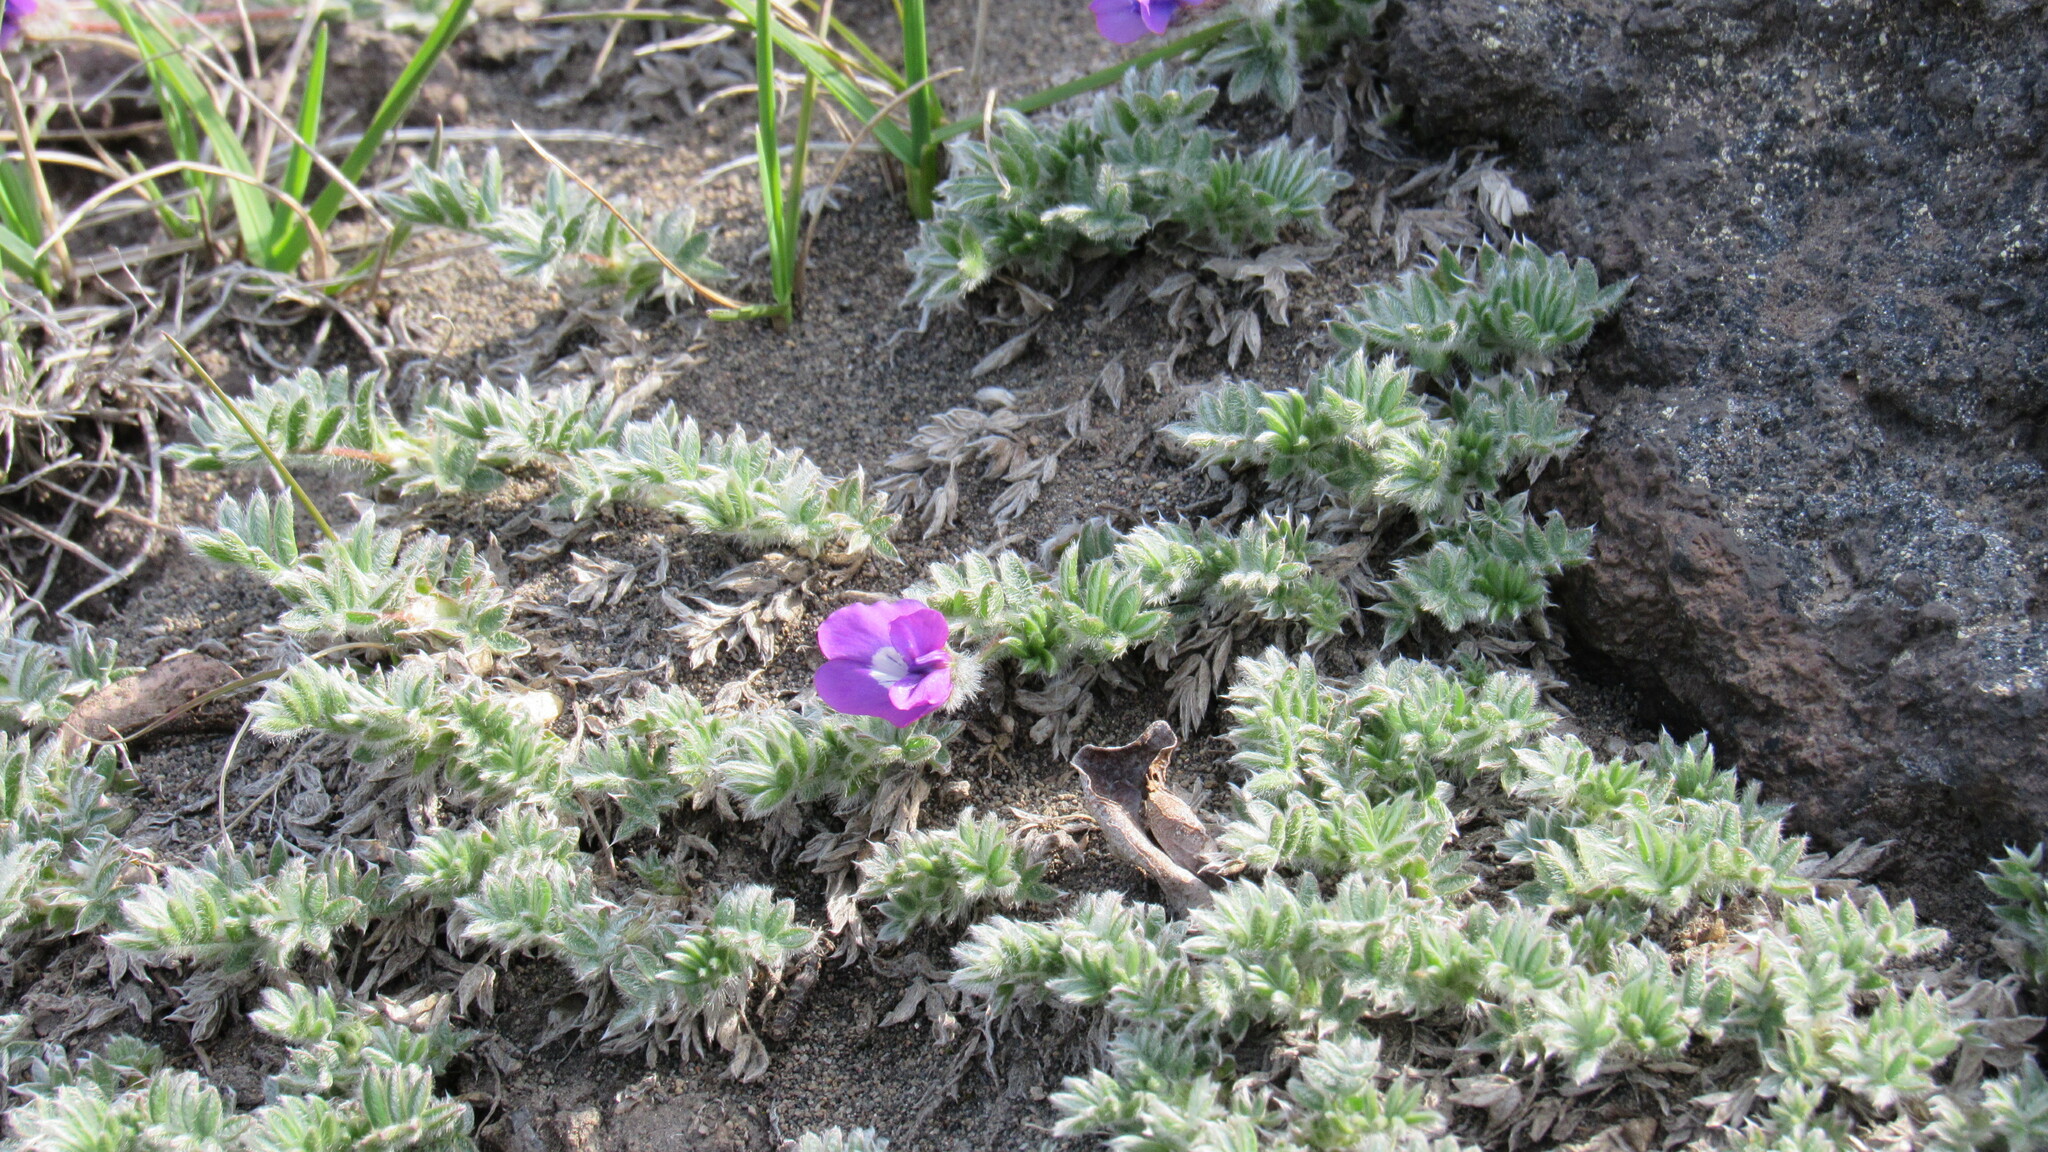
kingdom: Plantae
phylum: Tracheophyta
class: Magnoliopsida
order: Fabales
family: Fabaceae
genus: Oxytropis
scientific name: Oxytropis pumilio
